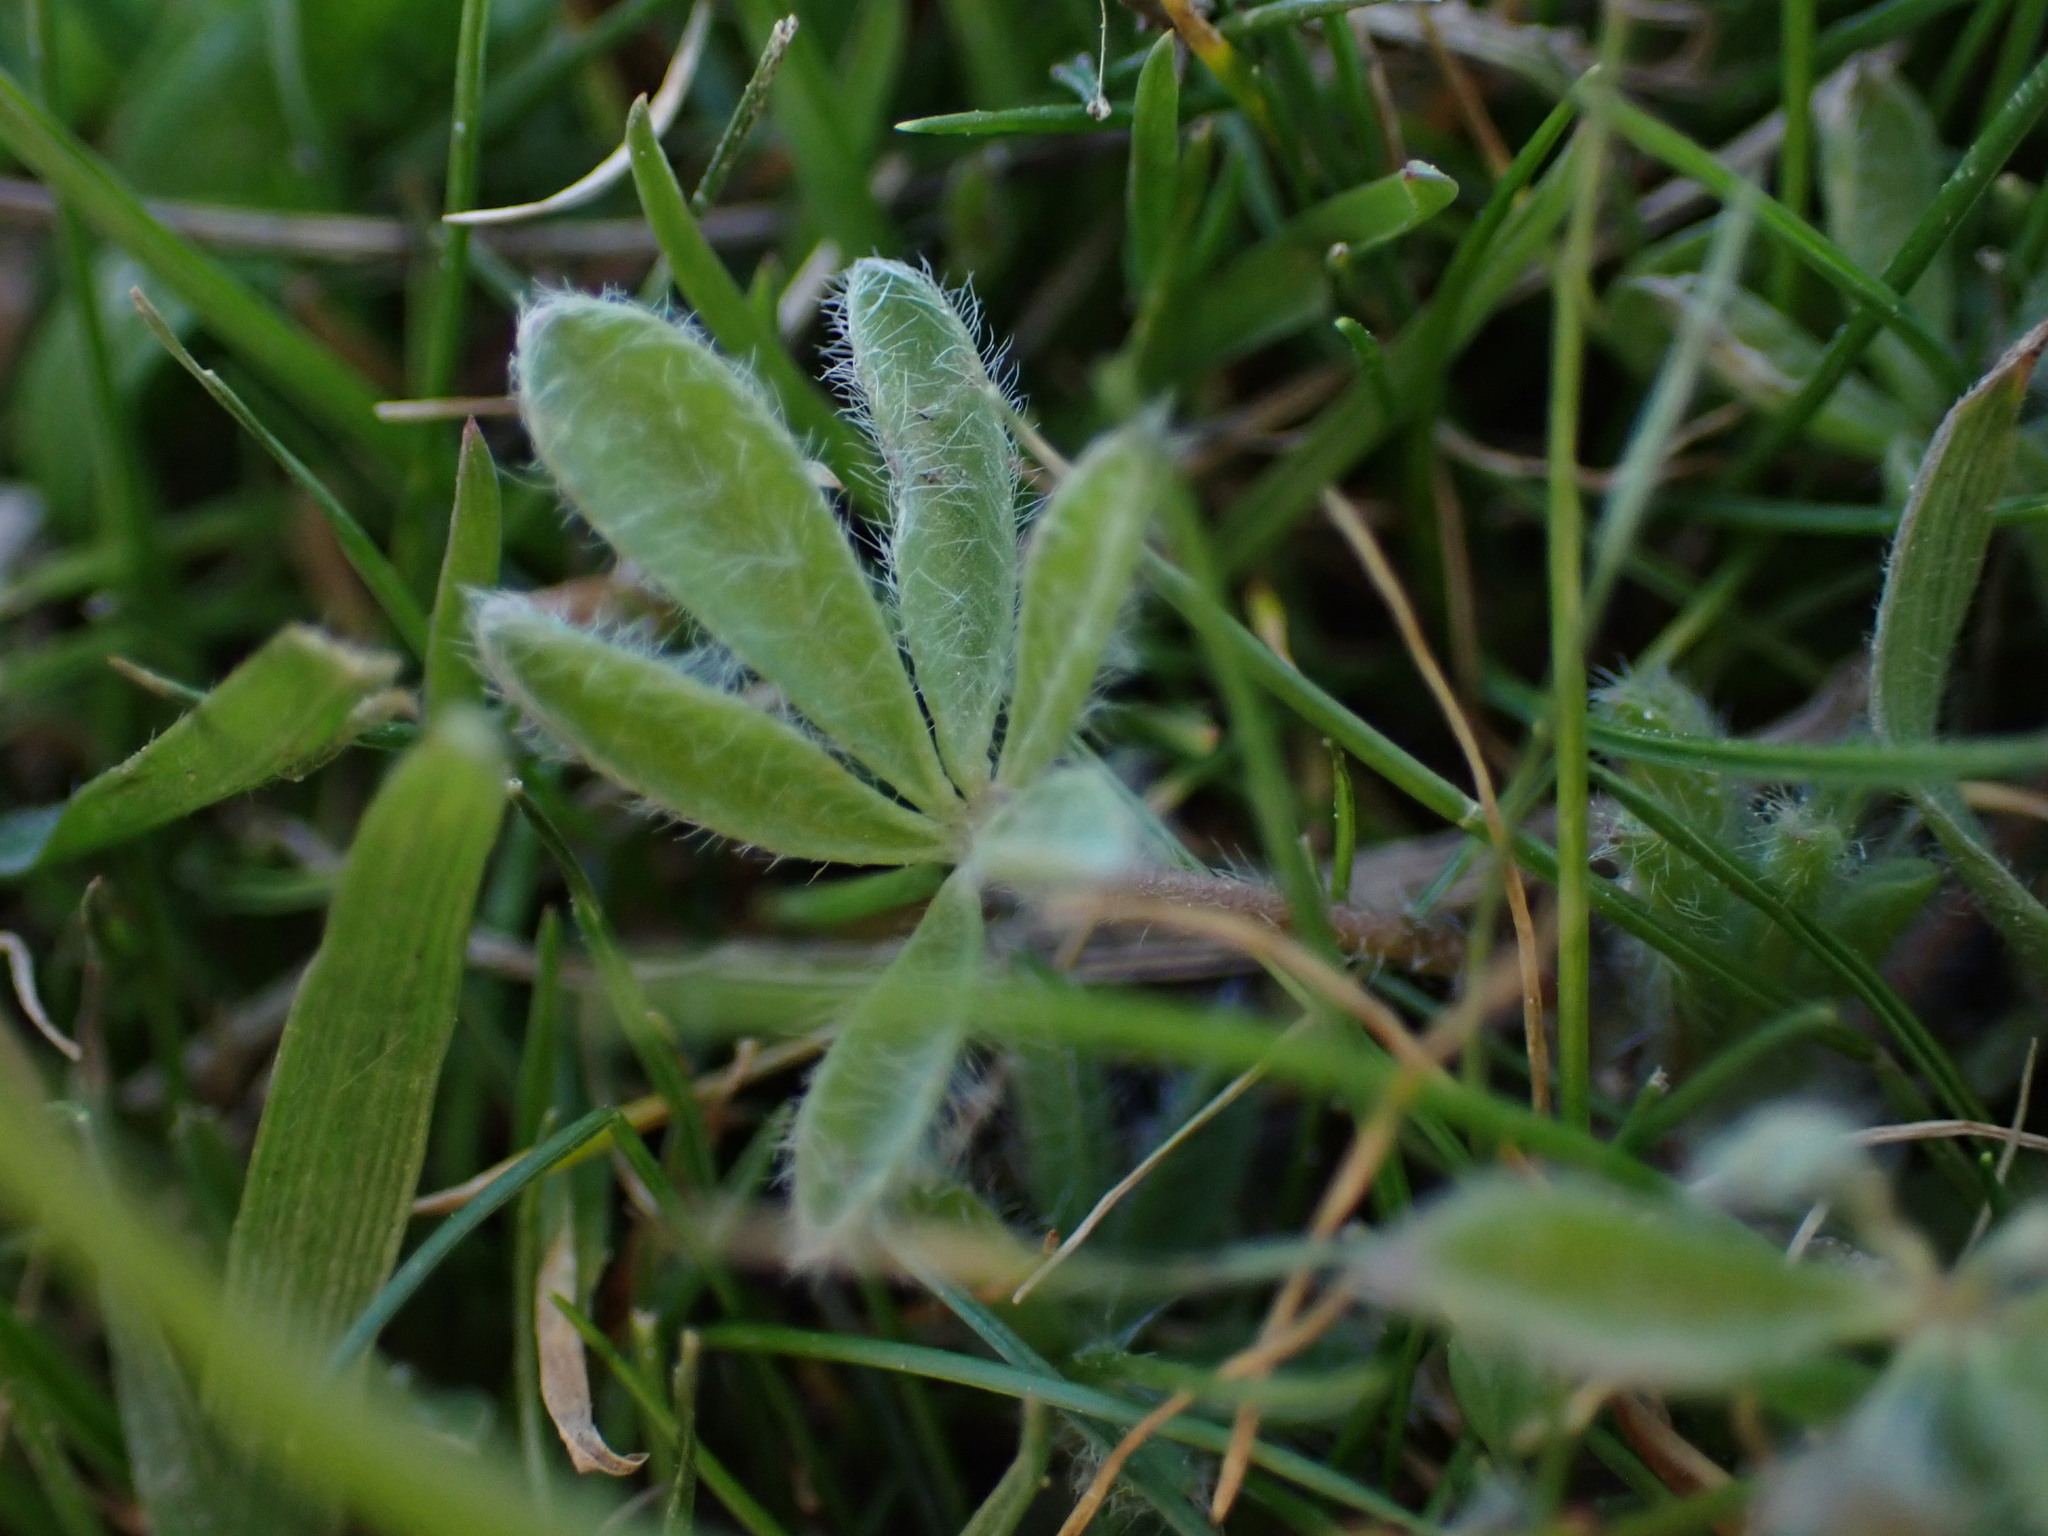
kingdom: Plantae
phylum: Tracheophyta
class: Magnoliopsida
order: Fabales
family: Fabaceae
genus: Lupinus
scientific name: Lupinus bicolor
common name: Miniature lupine
